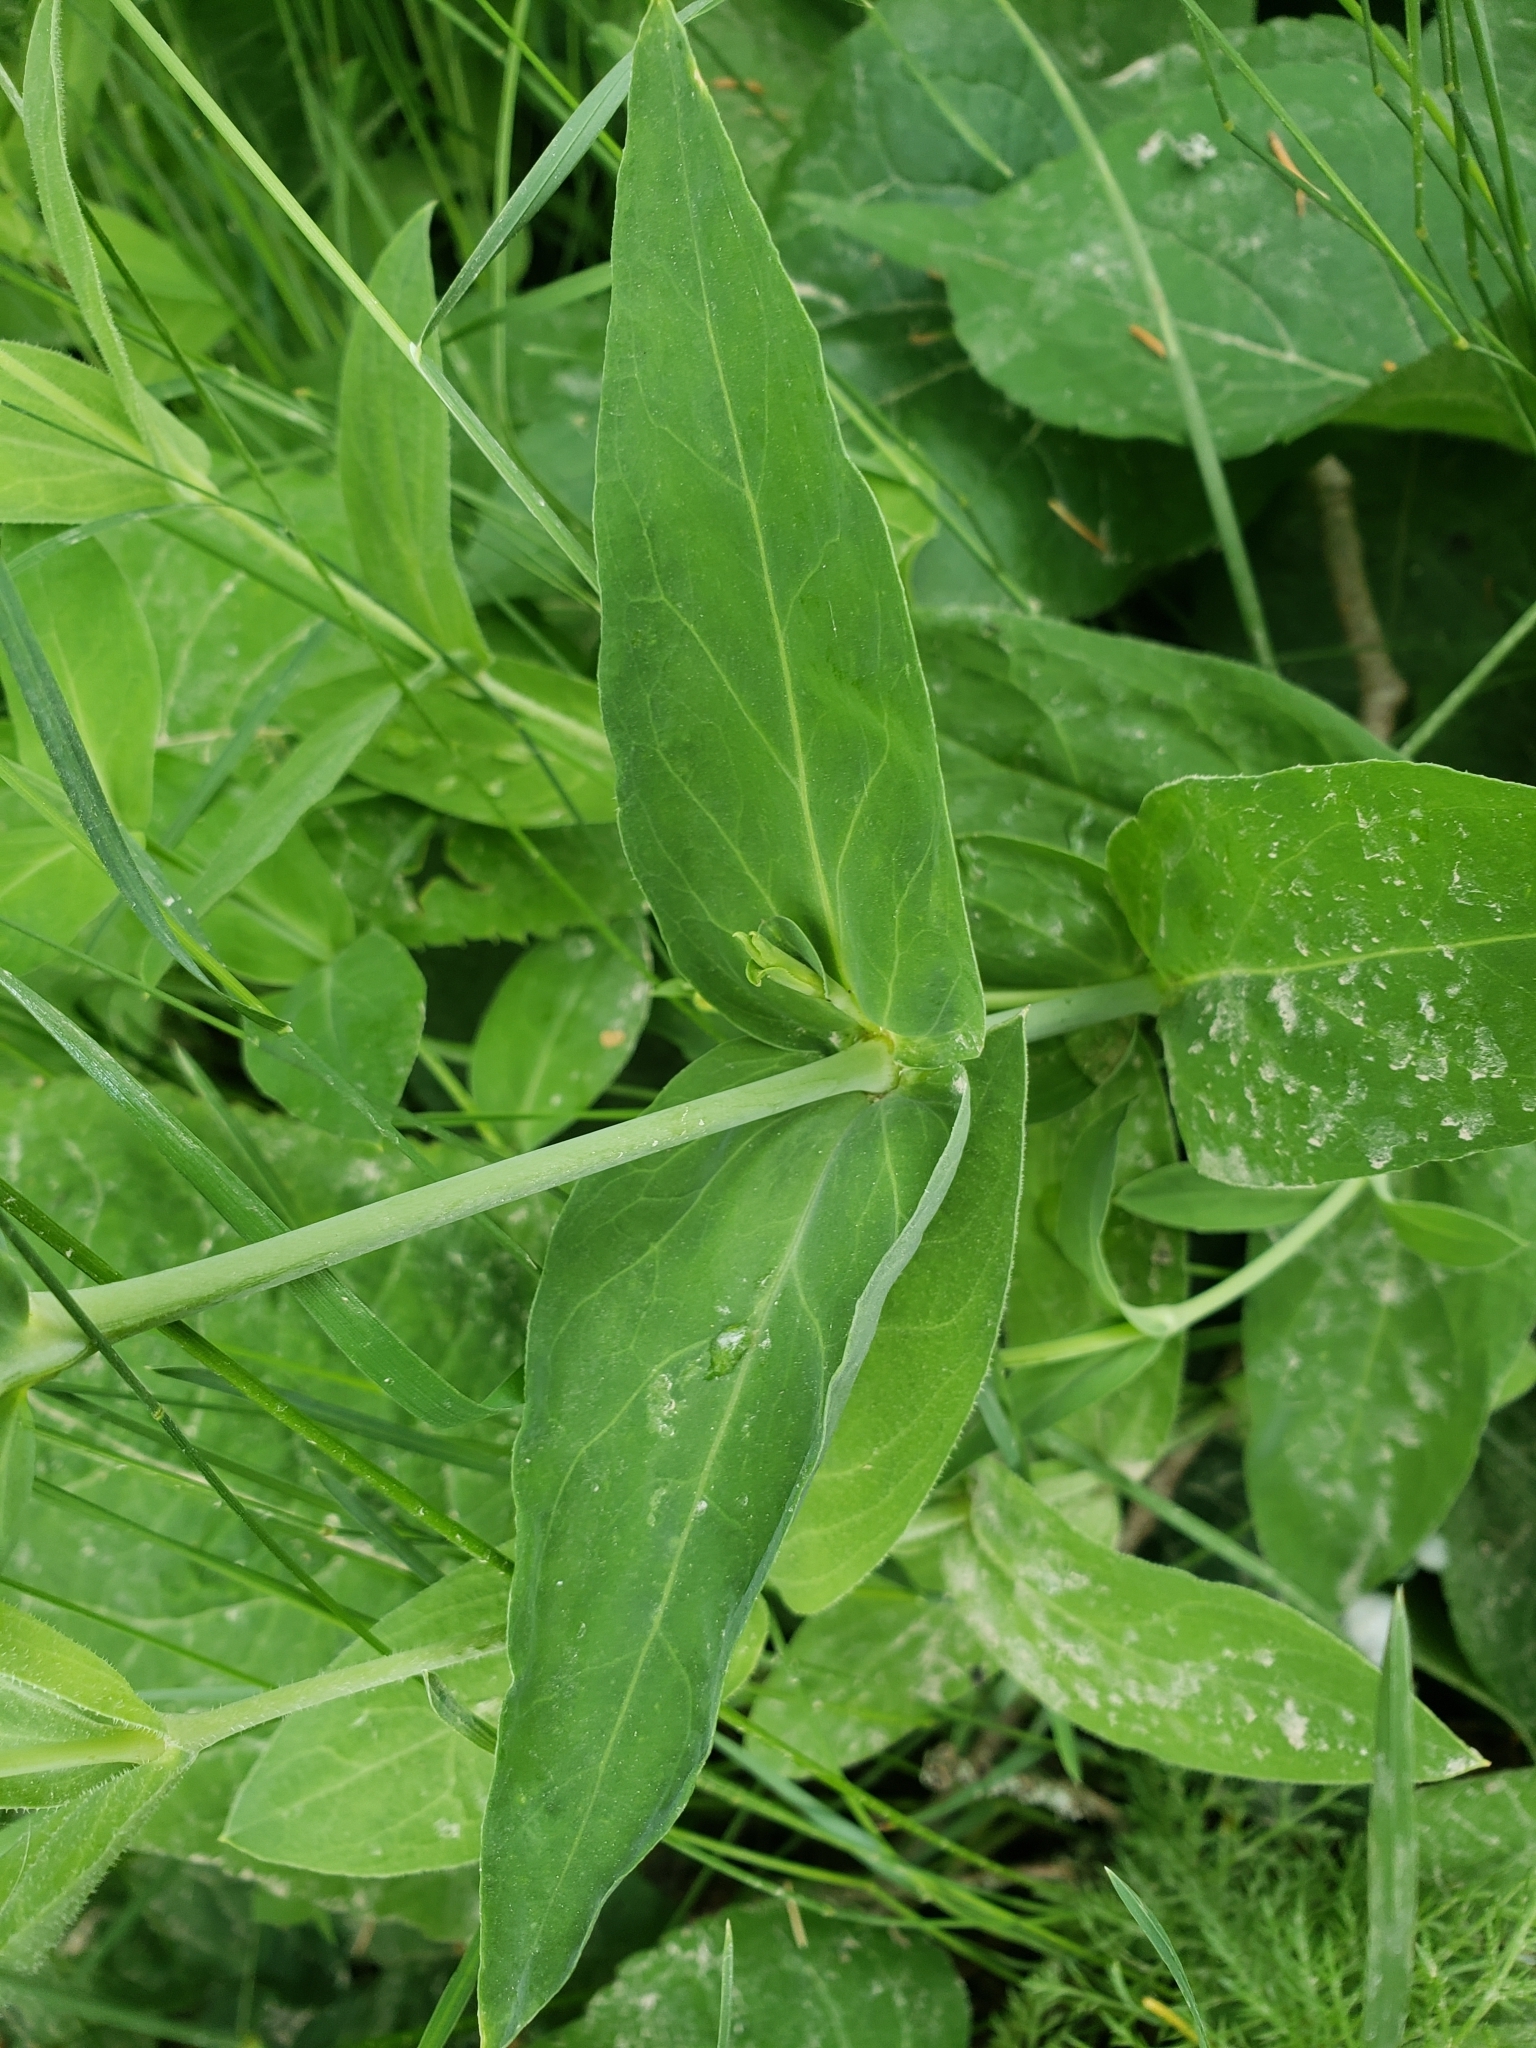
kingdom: Plantae
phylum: Tracheophyta
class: Magnoliopsida
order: Caryophyllales
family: Caryophyllaceae
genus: Silene
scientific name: Silene vulgaris
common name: Bladder campion
